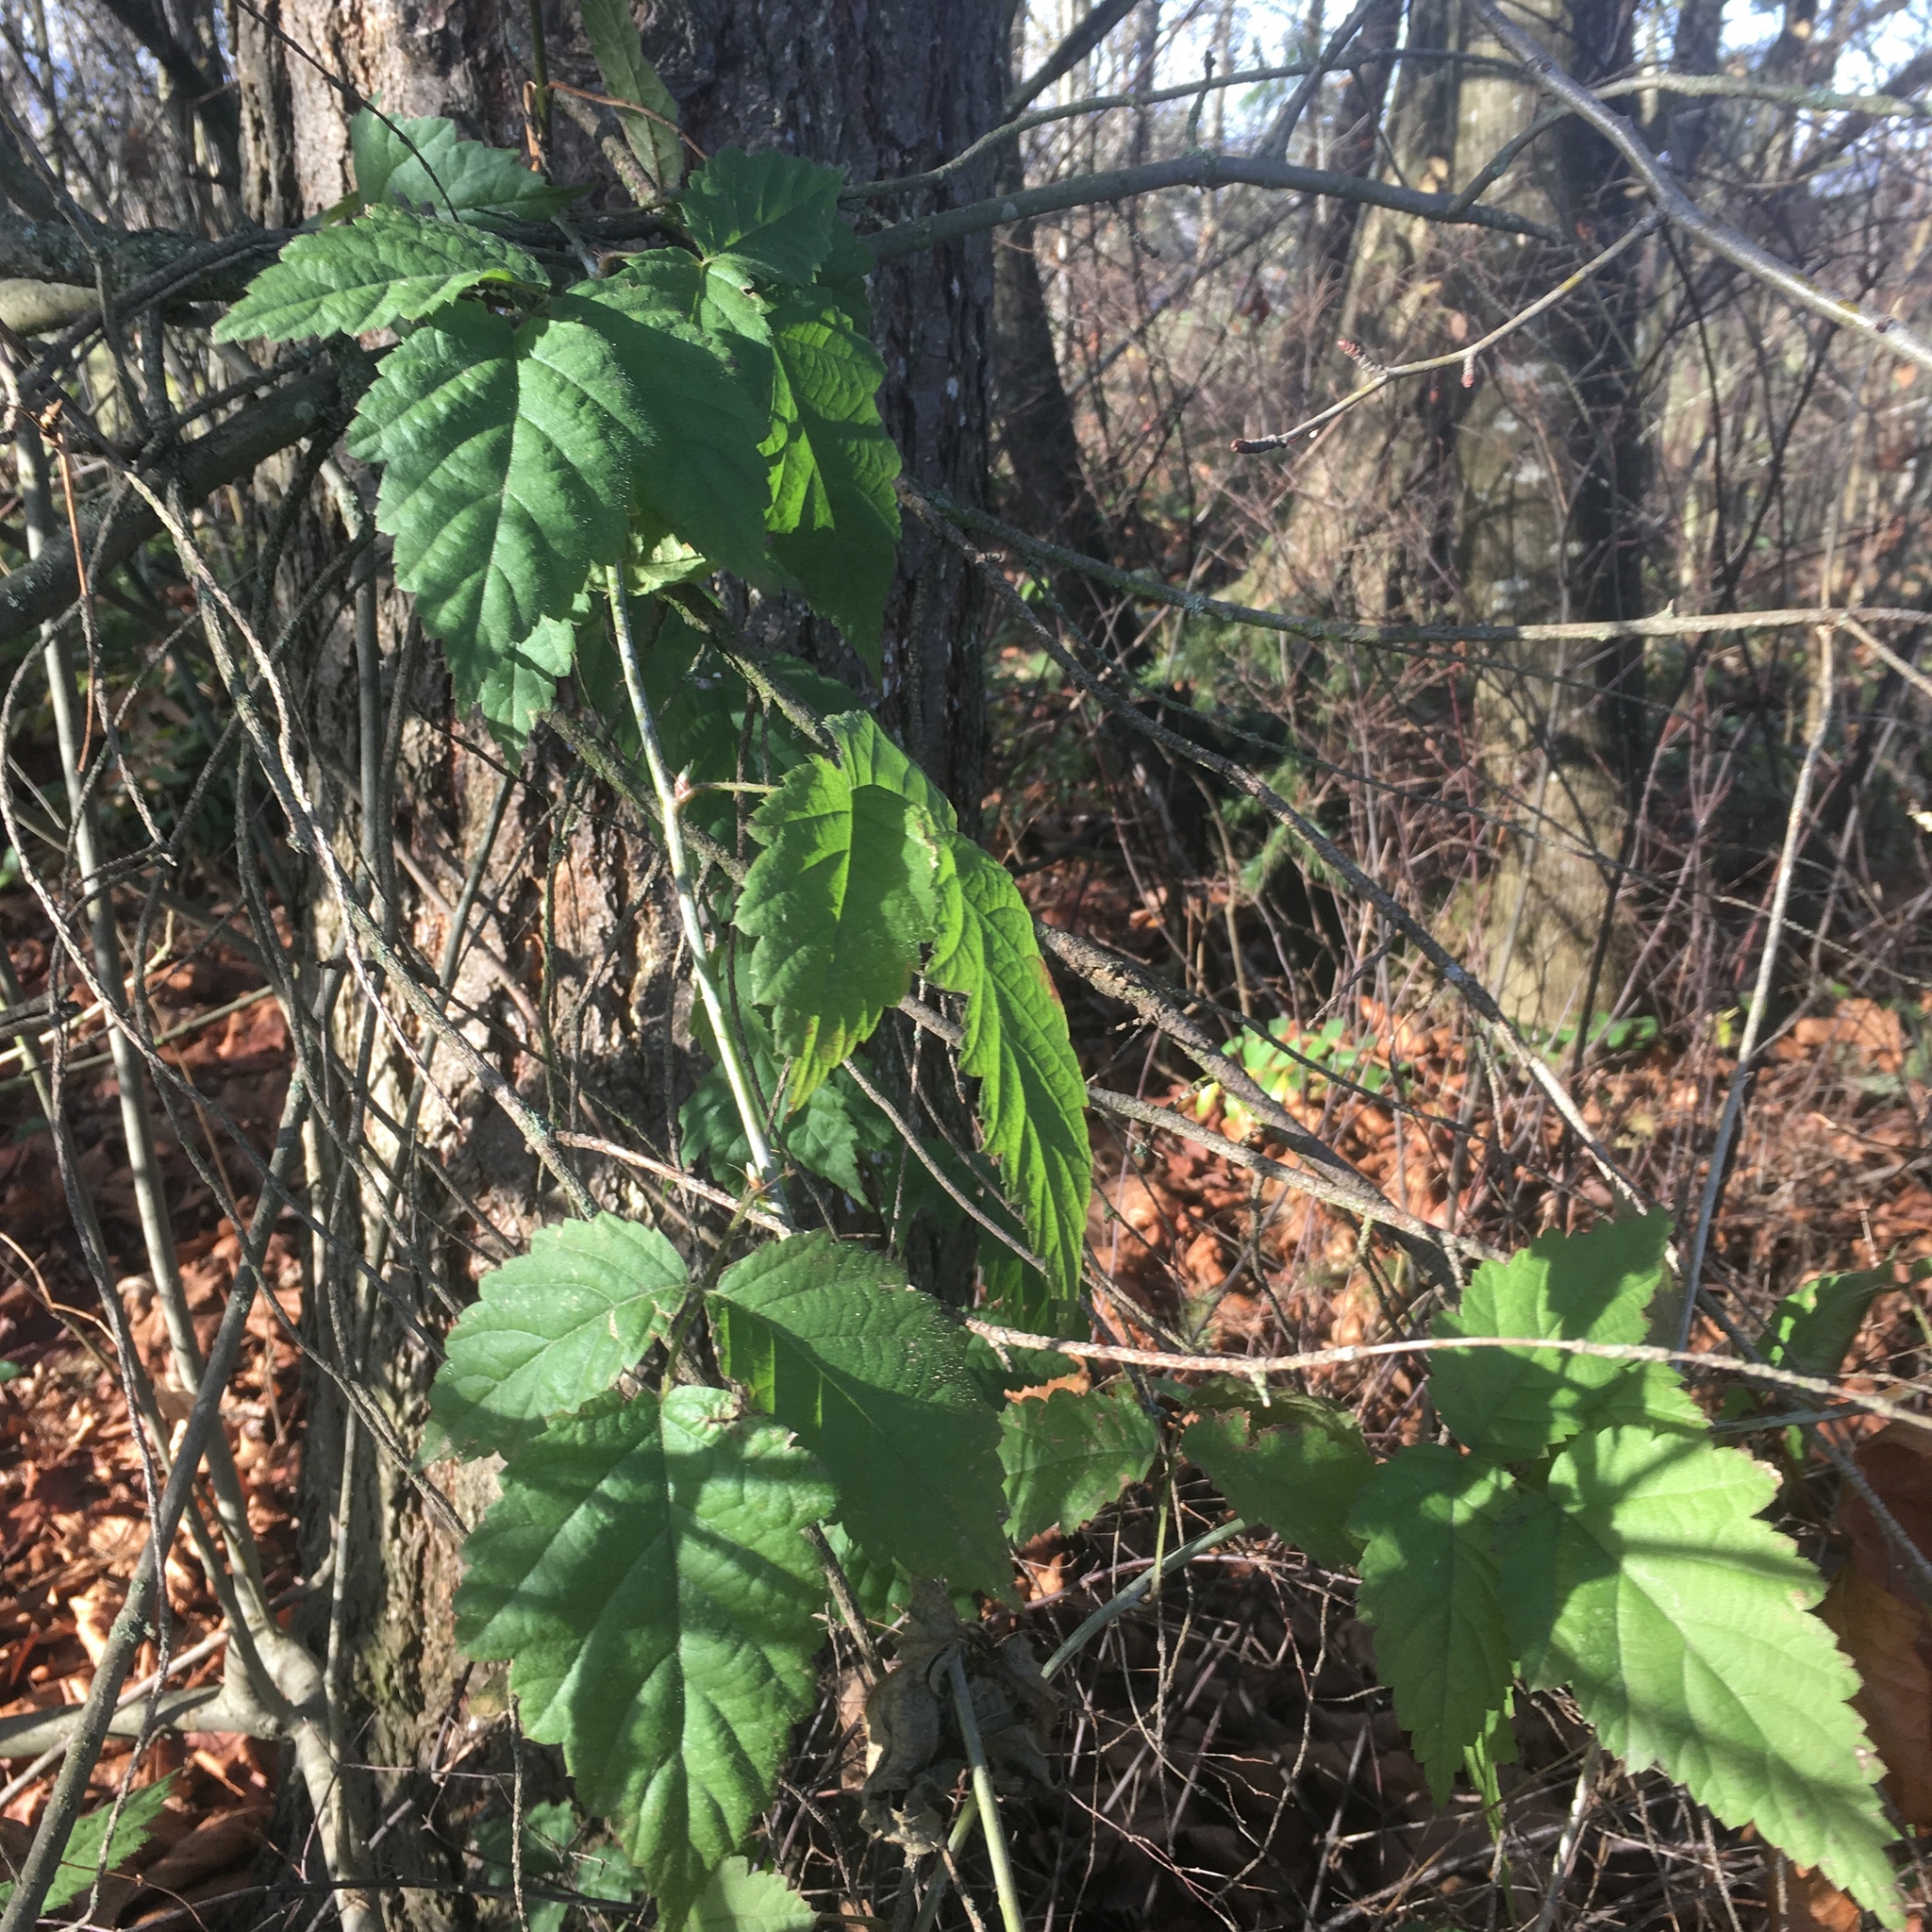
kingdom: Plantae
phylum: Tracheophyta
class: Magnoliopsida
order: Rosales
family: Rosaceae
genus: Rubus
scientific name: Rubus ursinus
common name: Pacific blackberry
